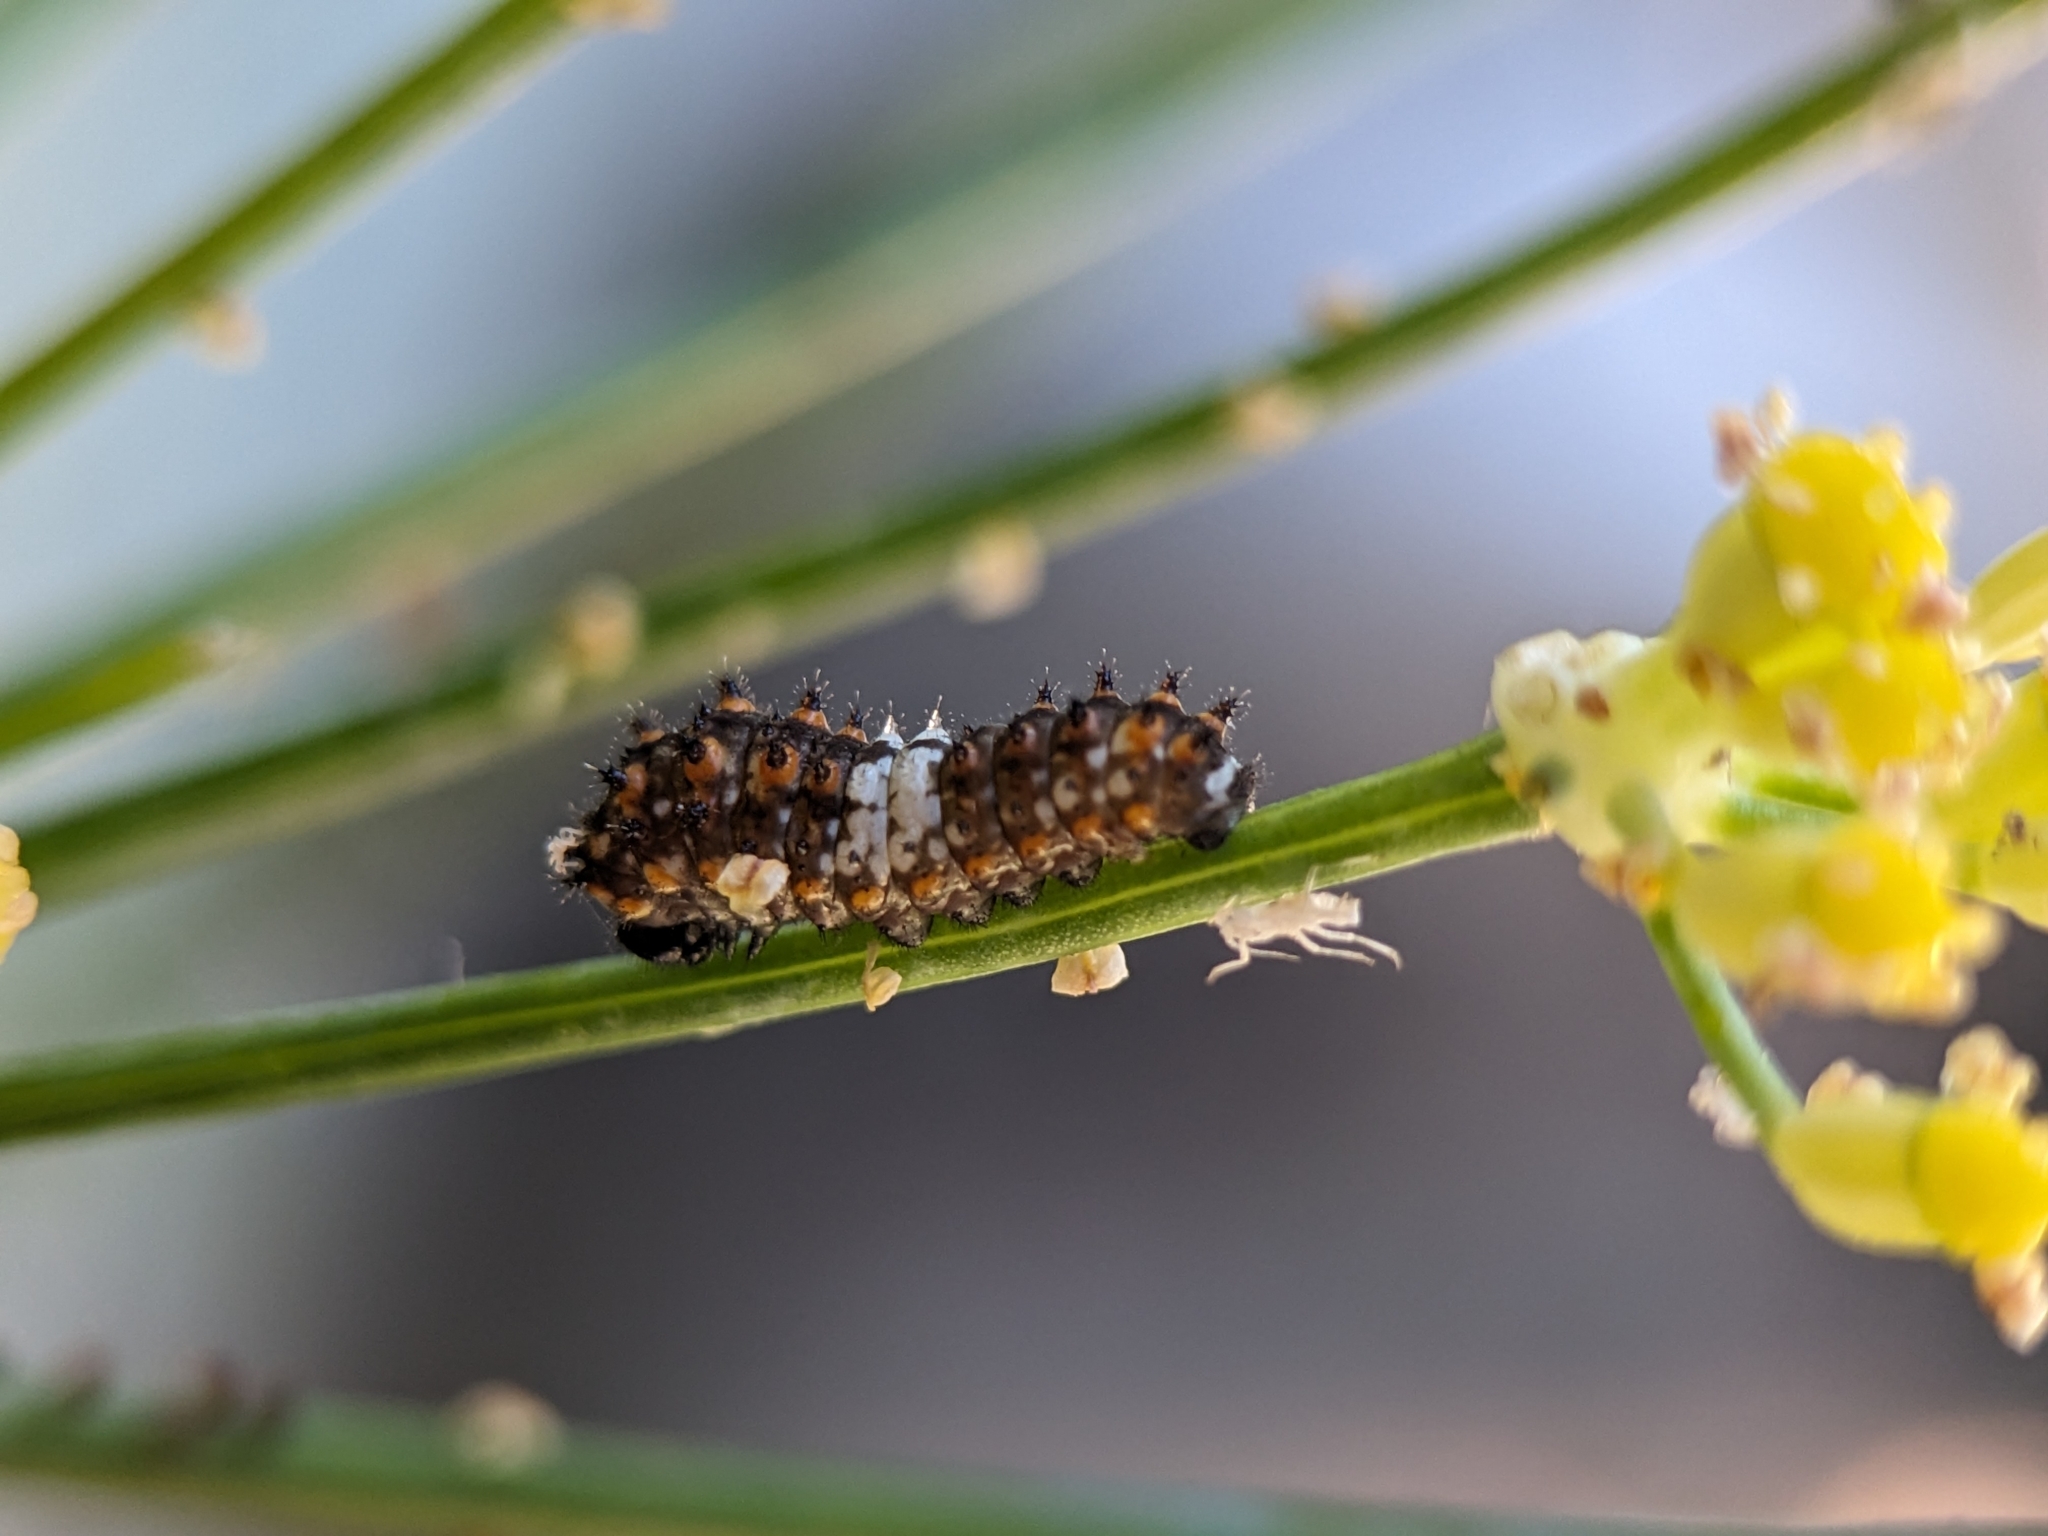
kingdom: Animalia
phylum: Arthropoda
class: Insecta
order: Lepidoptera
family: Papilionidae
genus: Papilio
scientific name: Papilio zelicaon
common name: Anise swallowtail
